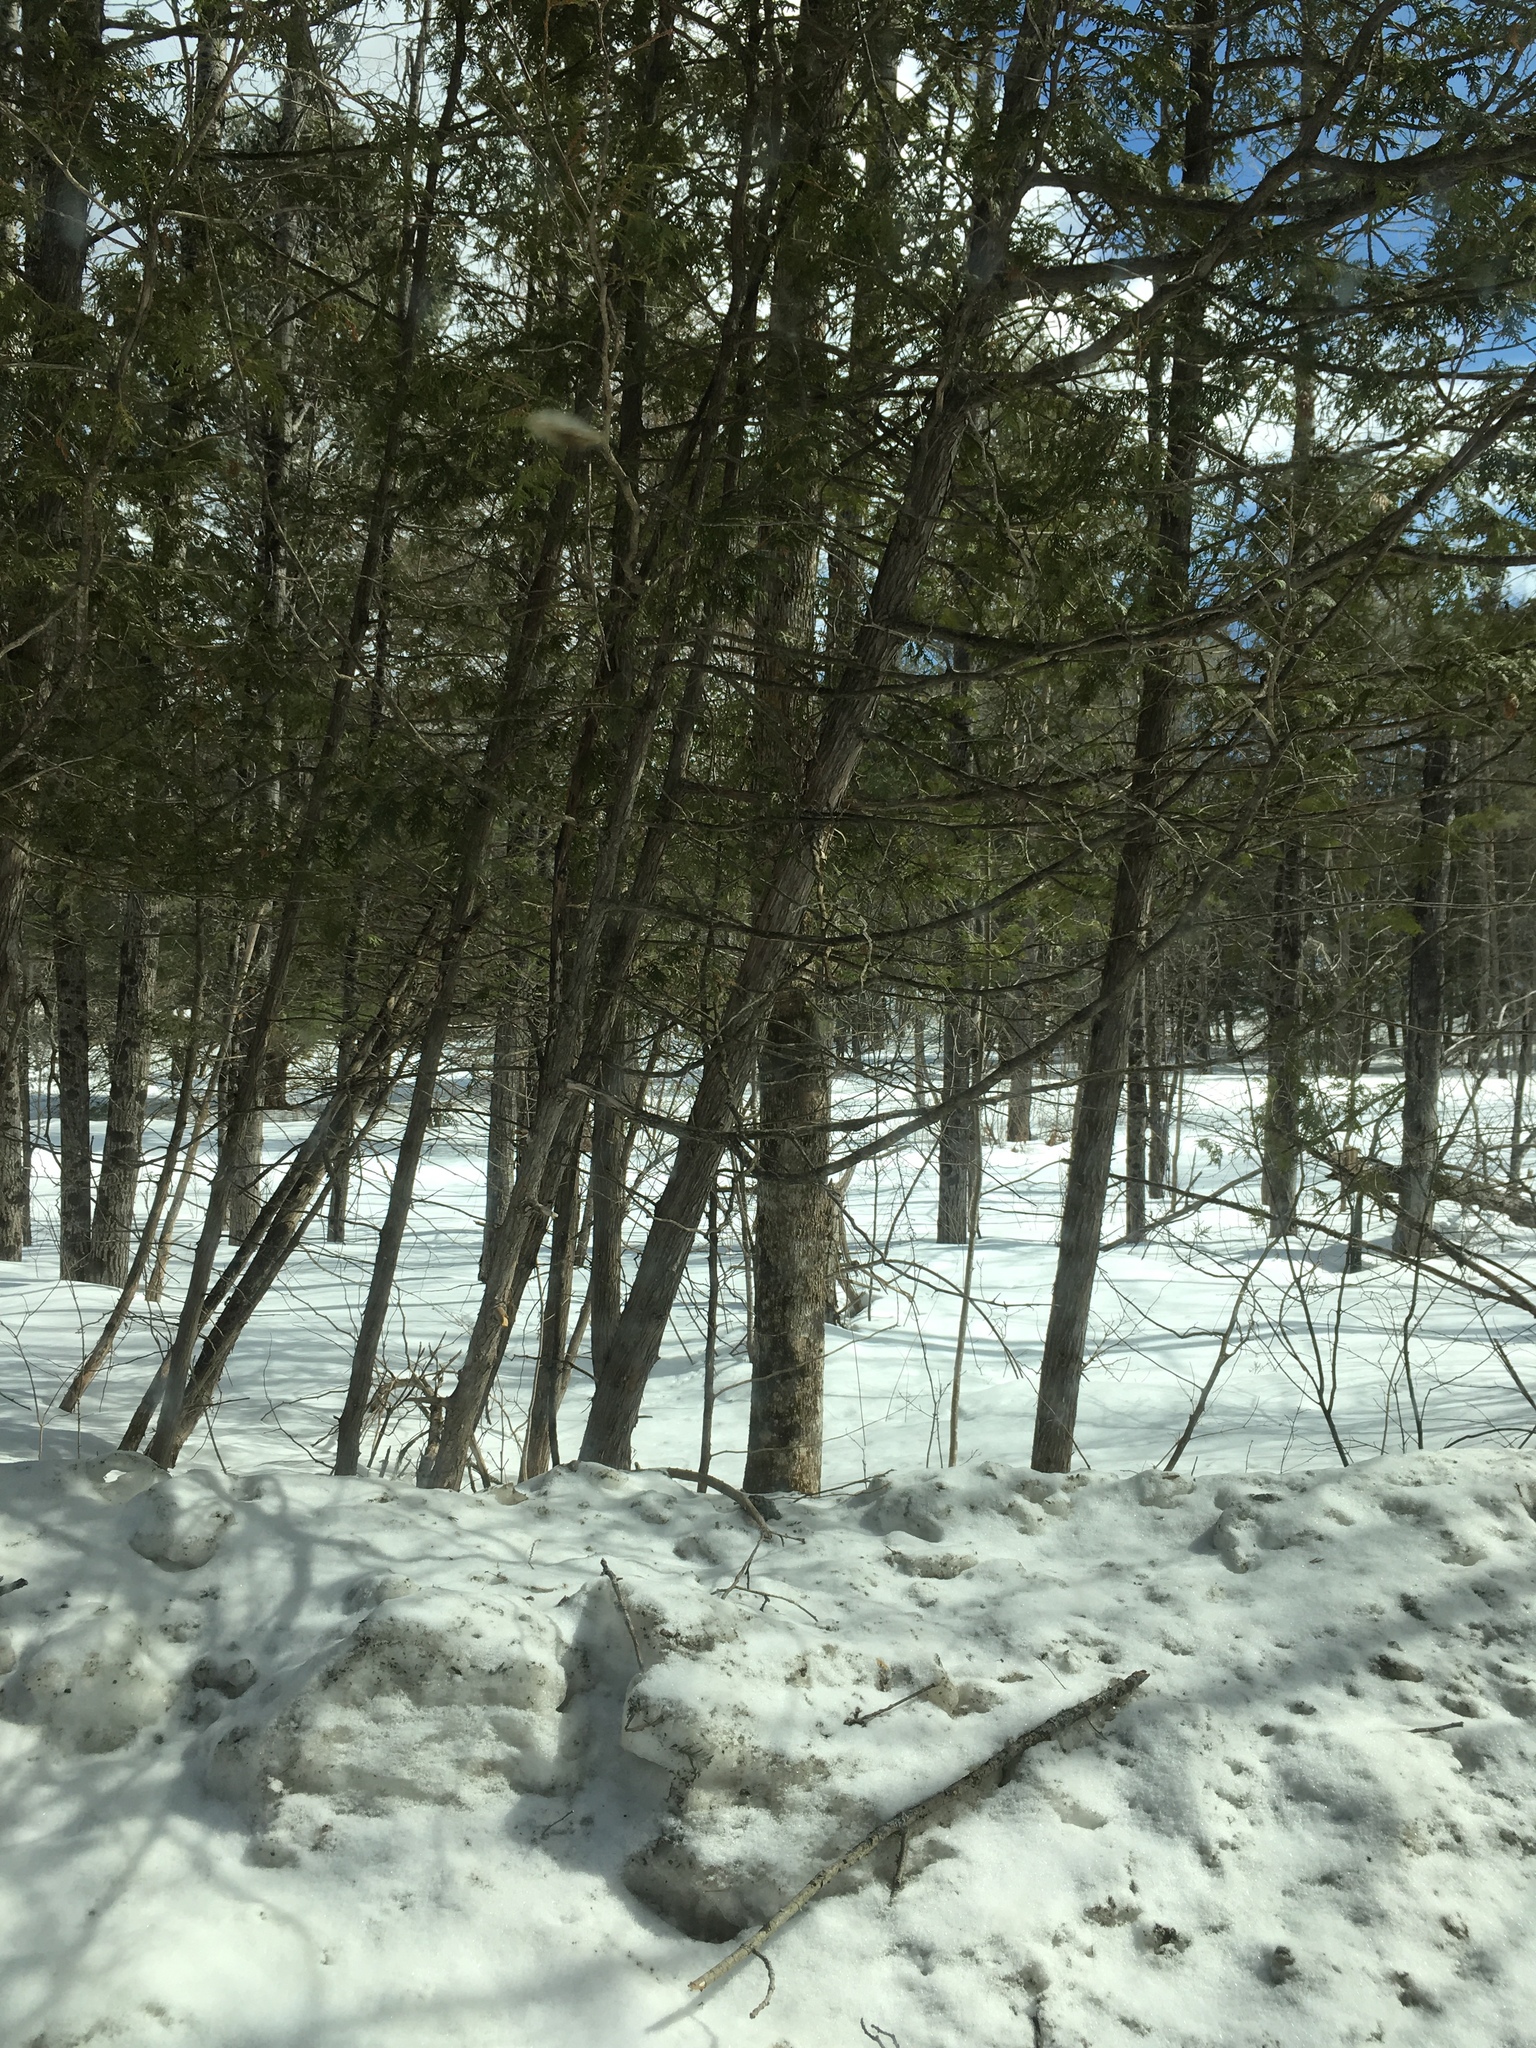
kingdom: Plantae
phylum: Tracheophyta
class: Pinopsida
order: Pinales
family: Cupressaceae
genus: Thuja
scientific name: Thuja occidentalis
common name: Northern white-cedar
